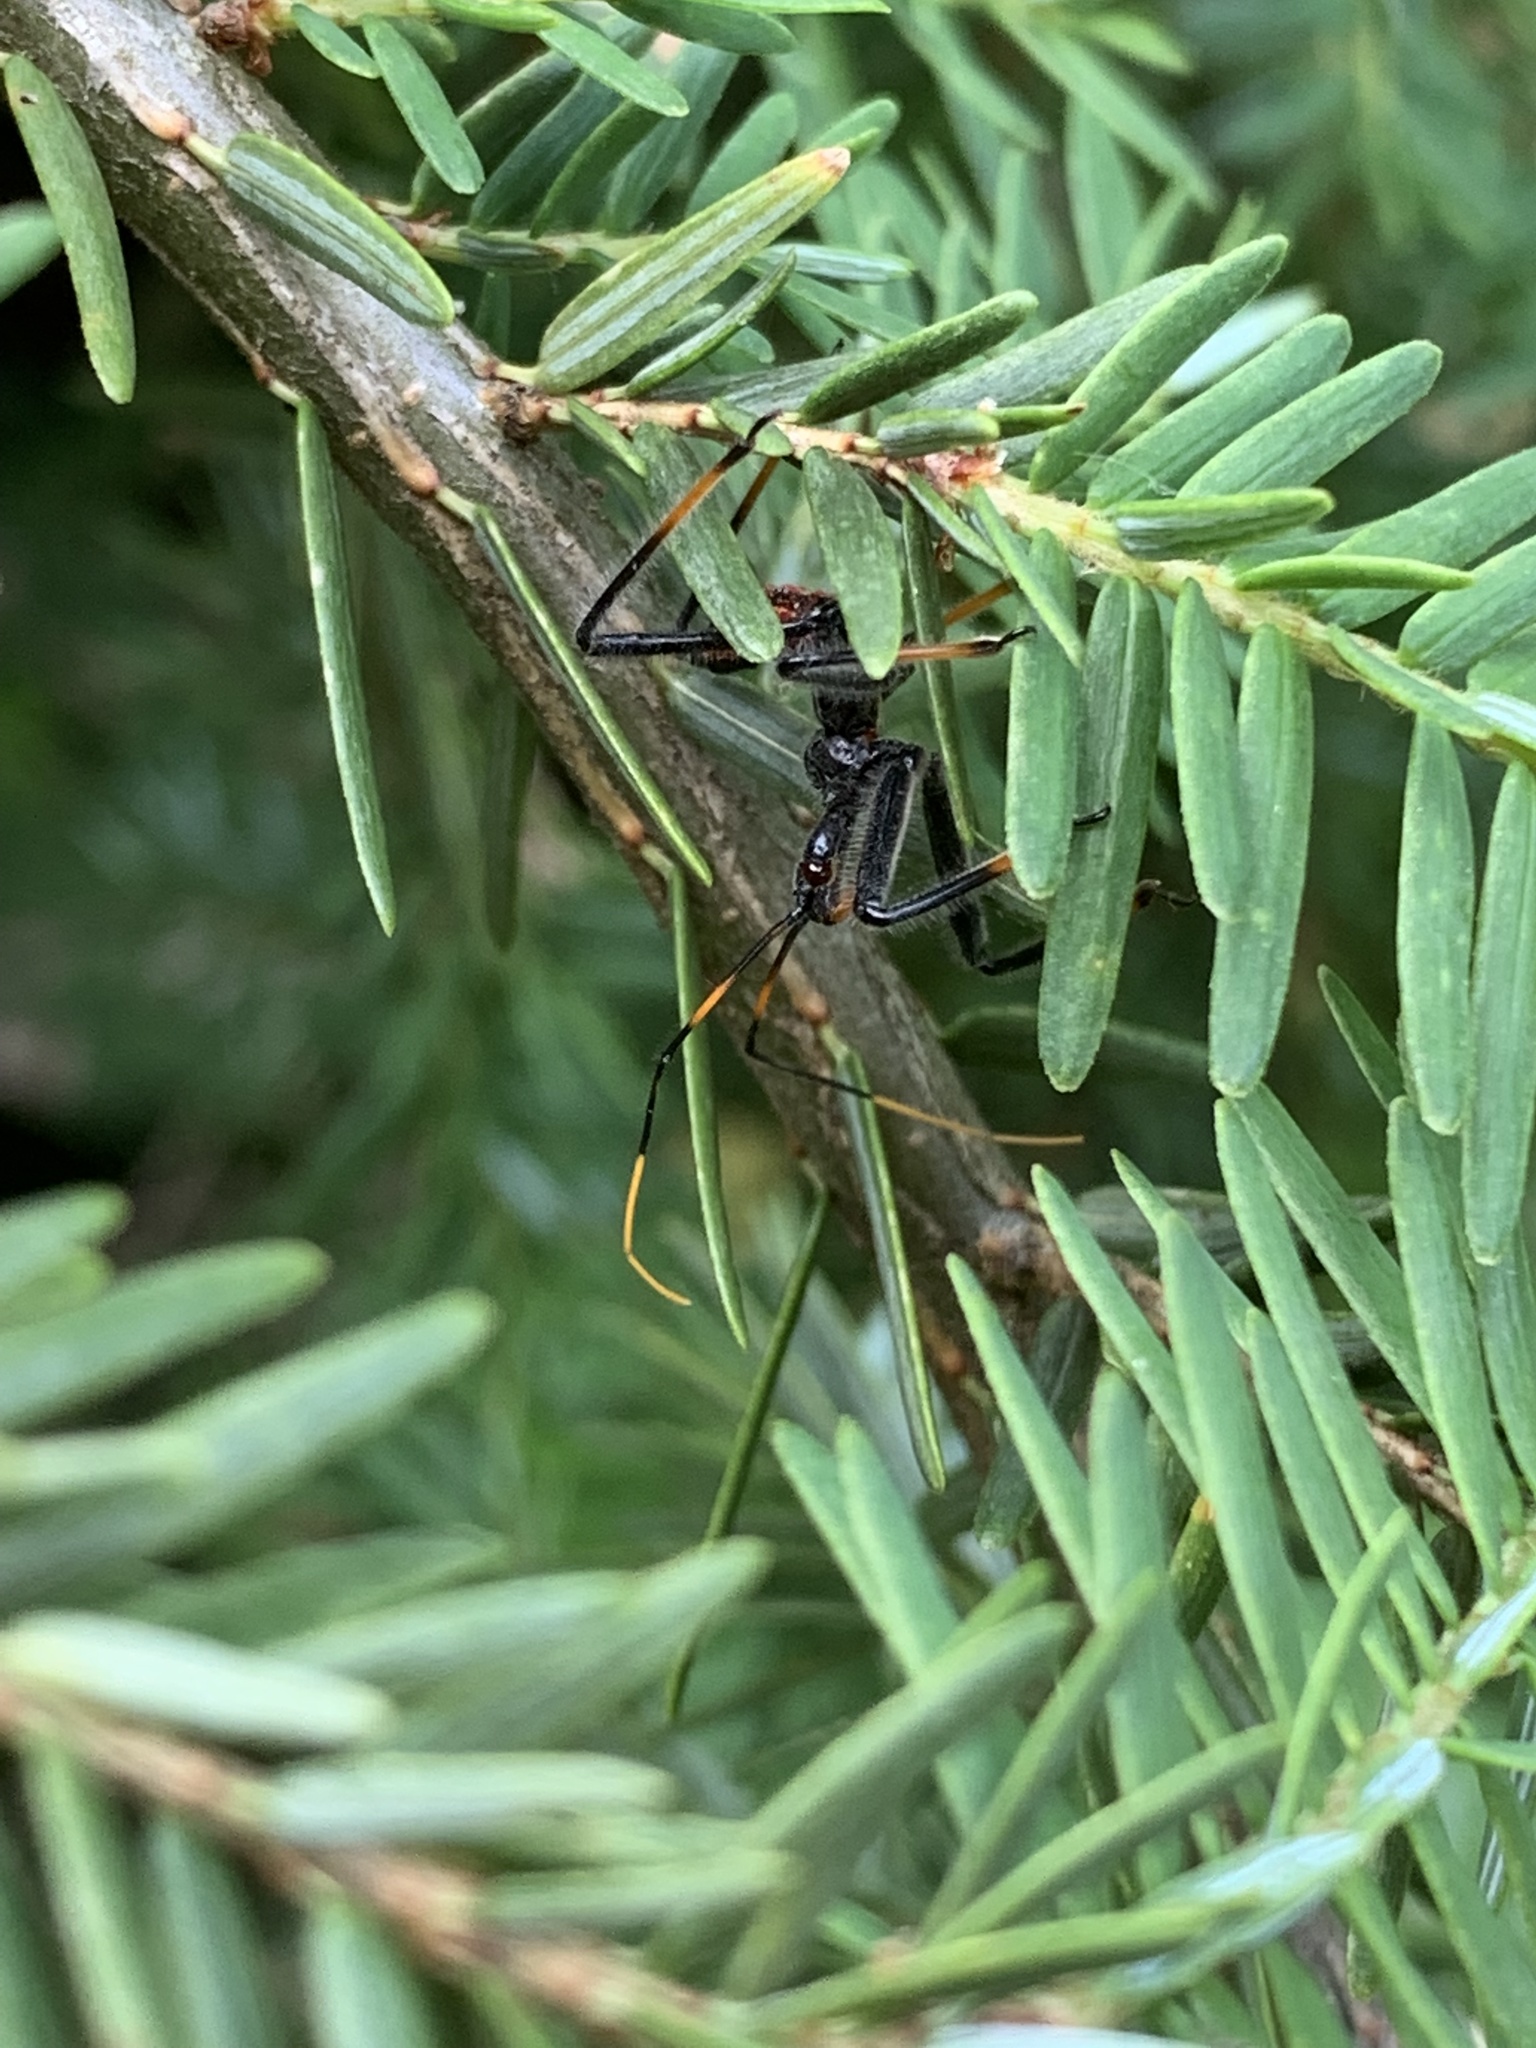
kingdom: Animalia
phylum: Arthropoda
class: Insecta
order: Hemiptera
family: Reduviidae
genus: Arilus
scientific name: Arilus cristatus
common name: North american wheel bug
